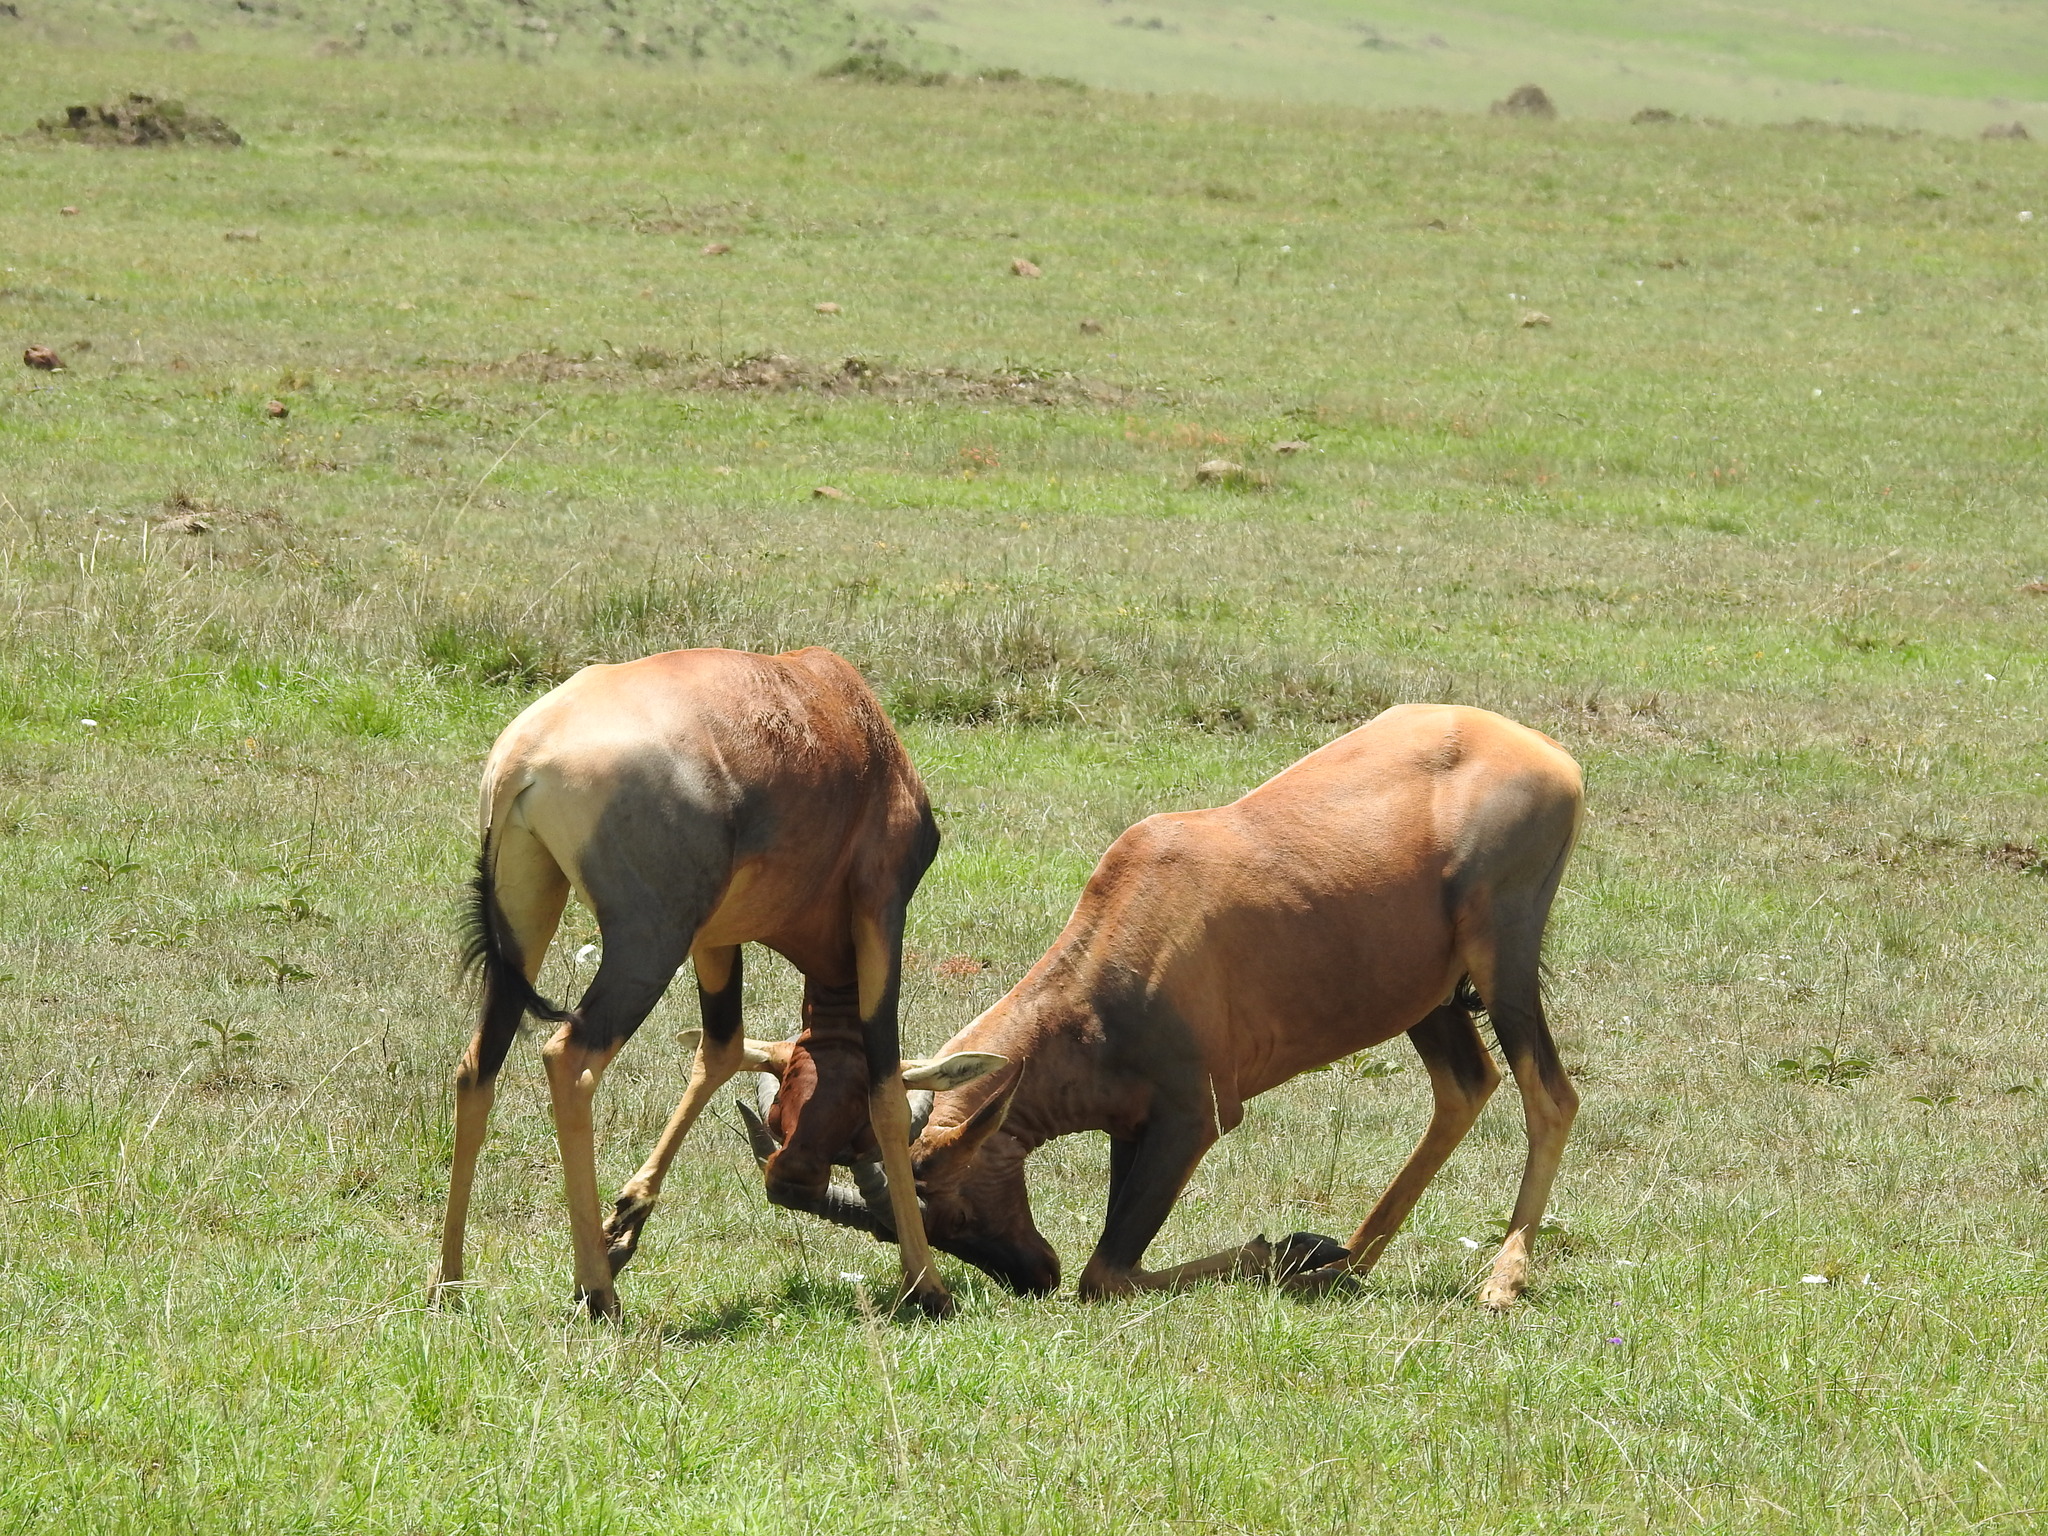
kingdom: Animalia
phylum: Chordata
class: Mammalia
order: Artiodactyla
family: Bovidae
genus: Damaliscus
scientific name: Damaliscus korrigum
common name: Topi
